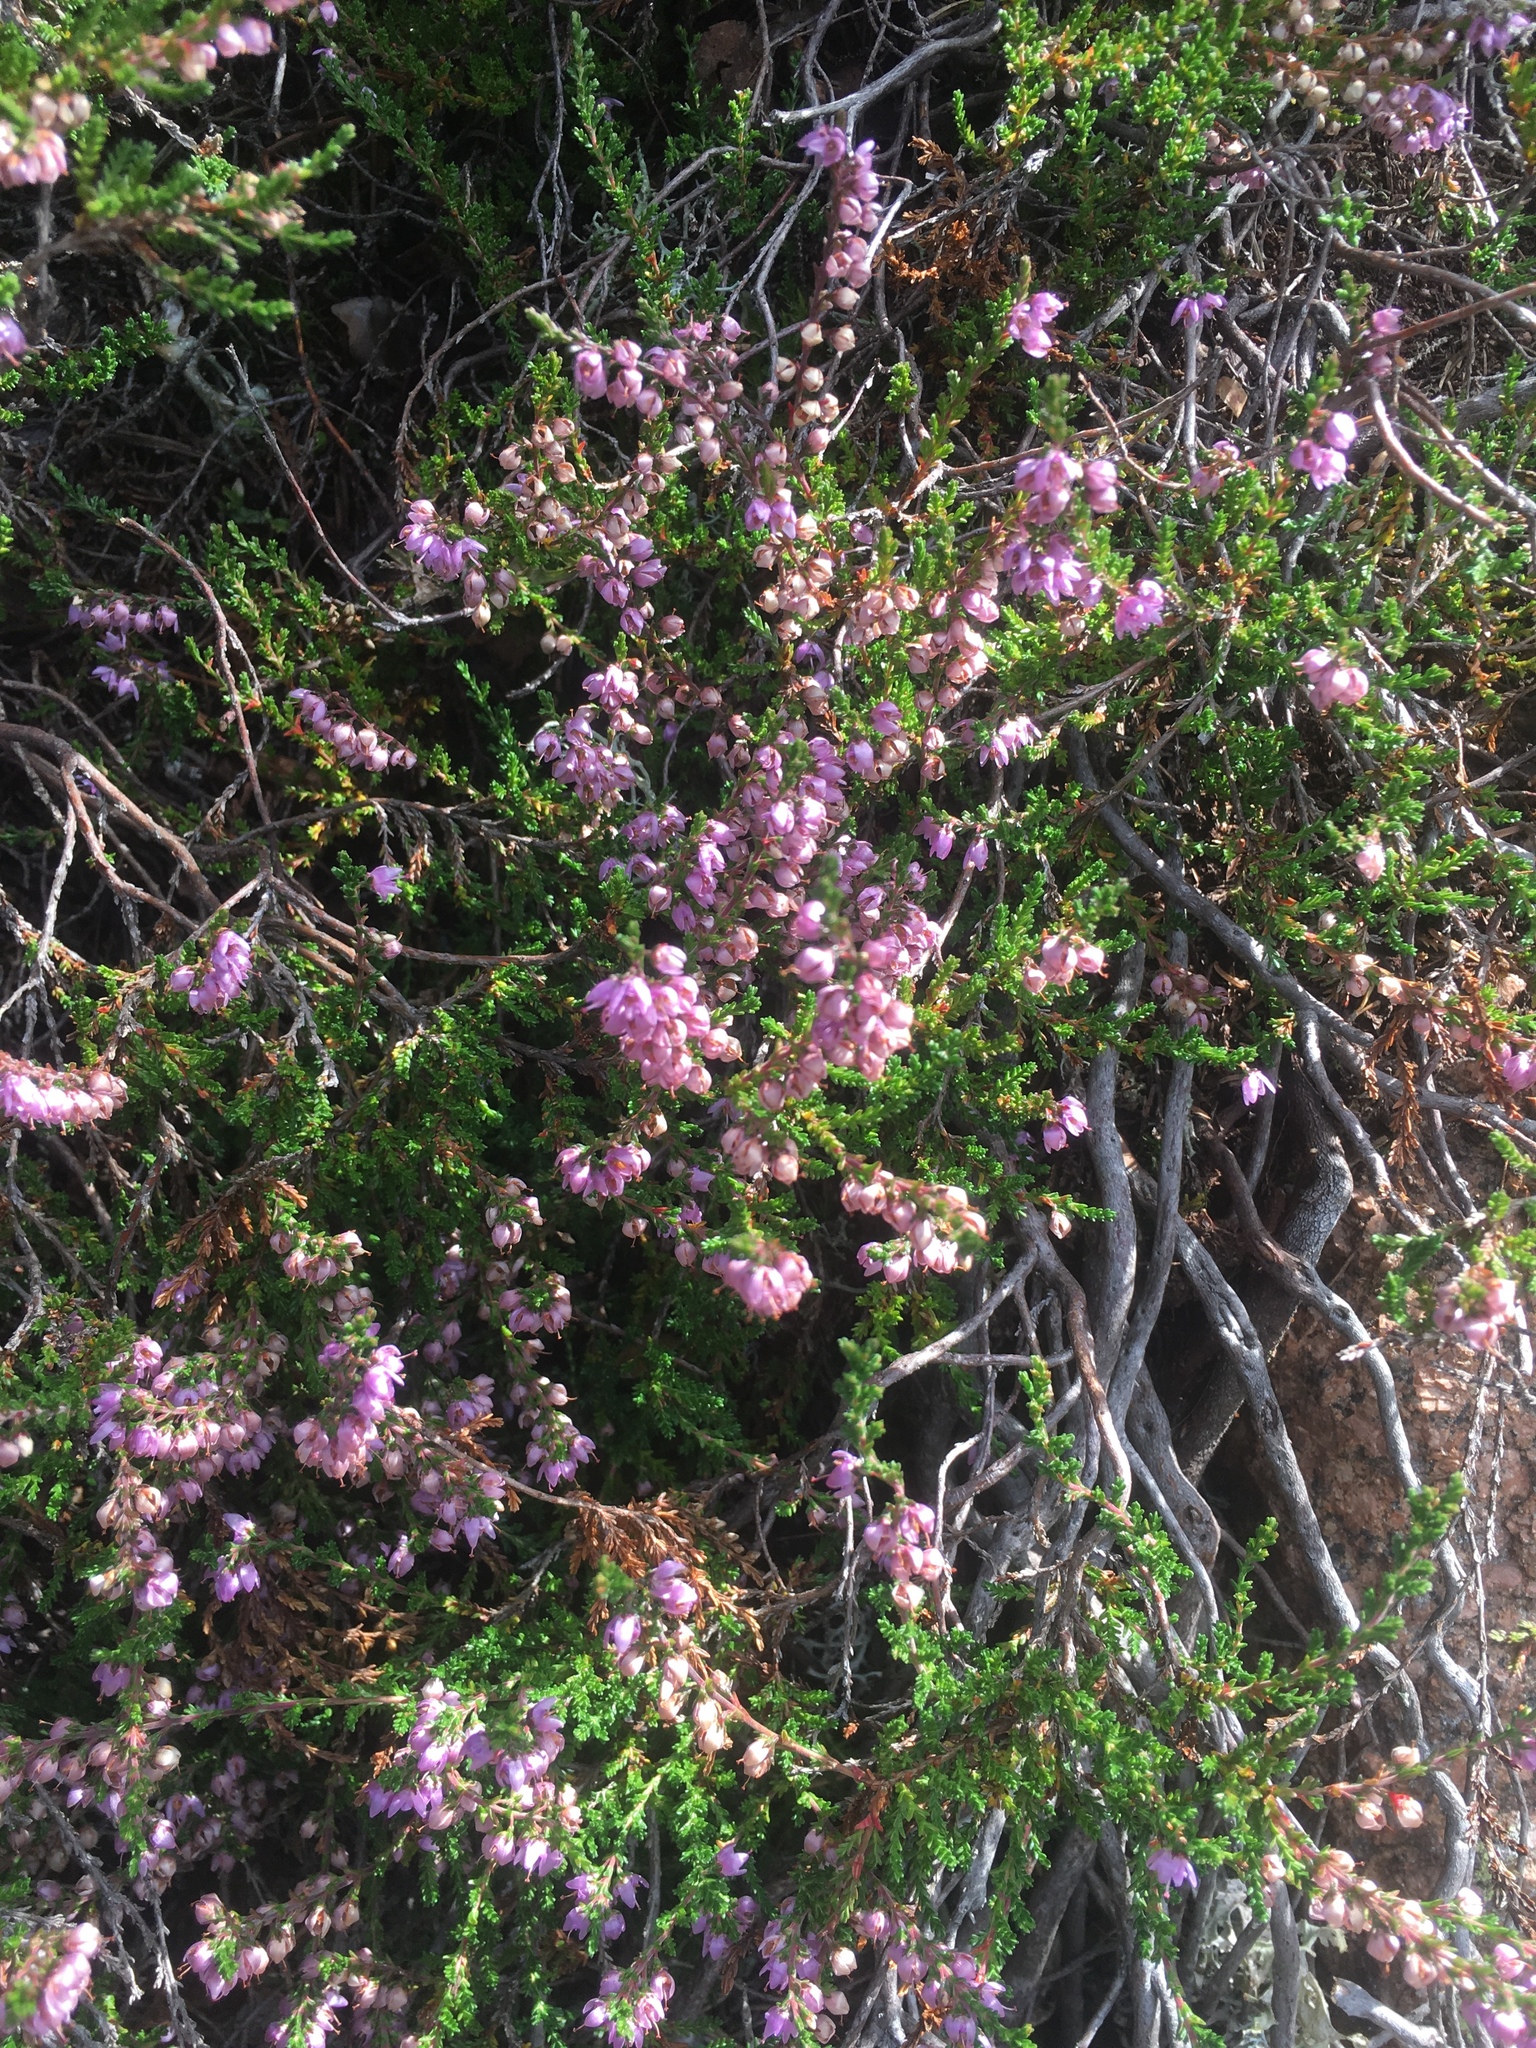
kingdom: Plantae
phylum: Tracheophyta
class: Magnoliopsida
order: Ericales
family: Ericaceae
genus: Calluna
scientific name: Calluna vulgaris
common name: Heather
